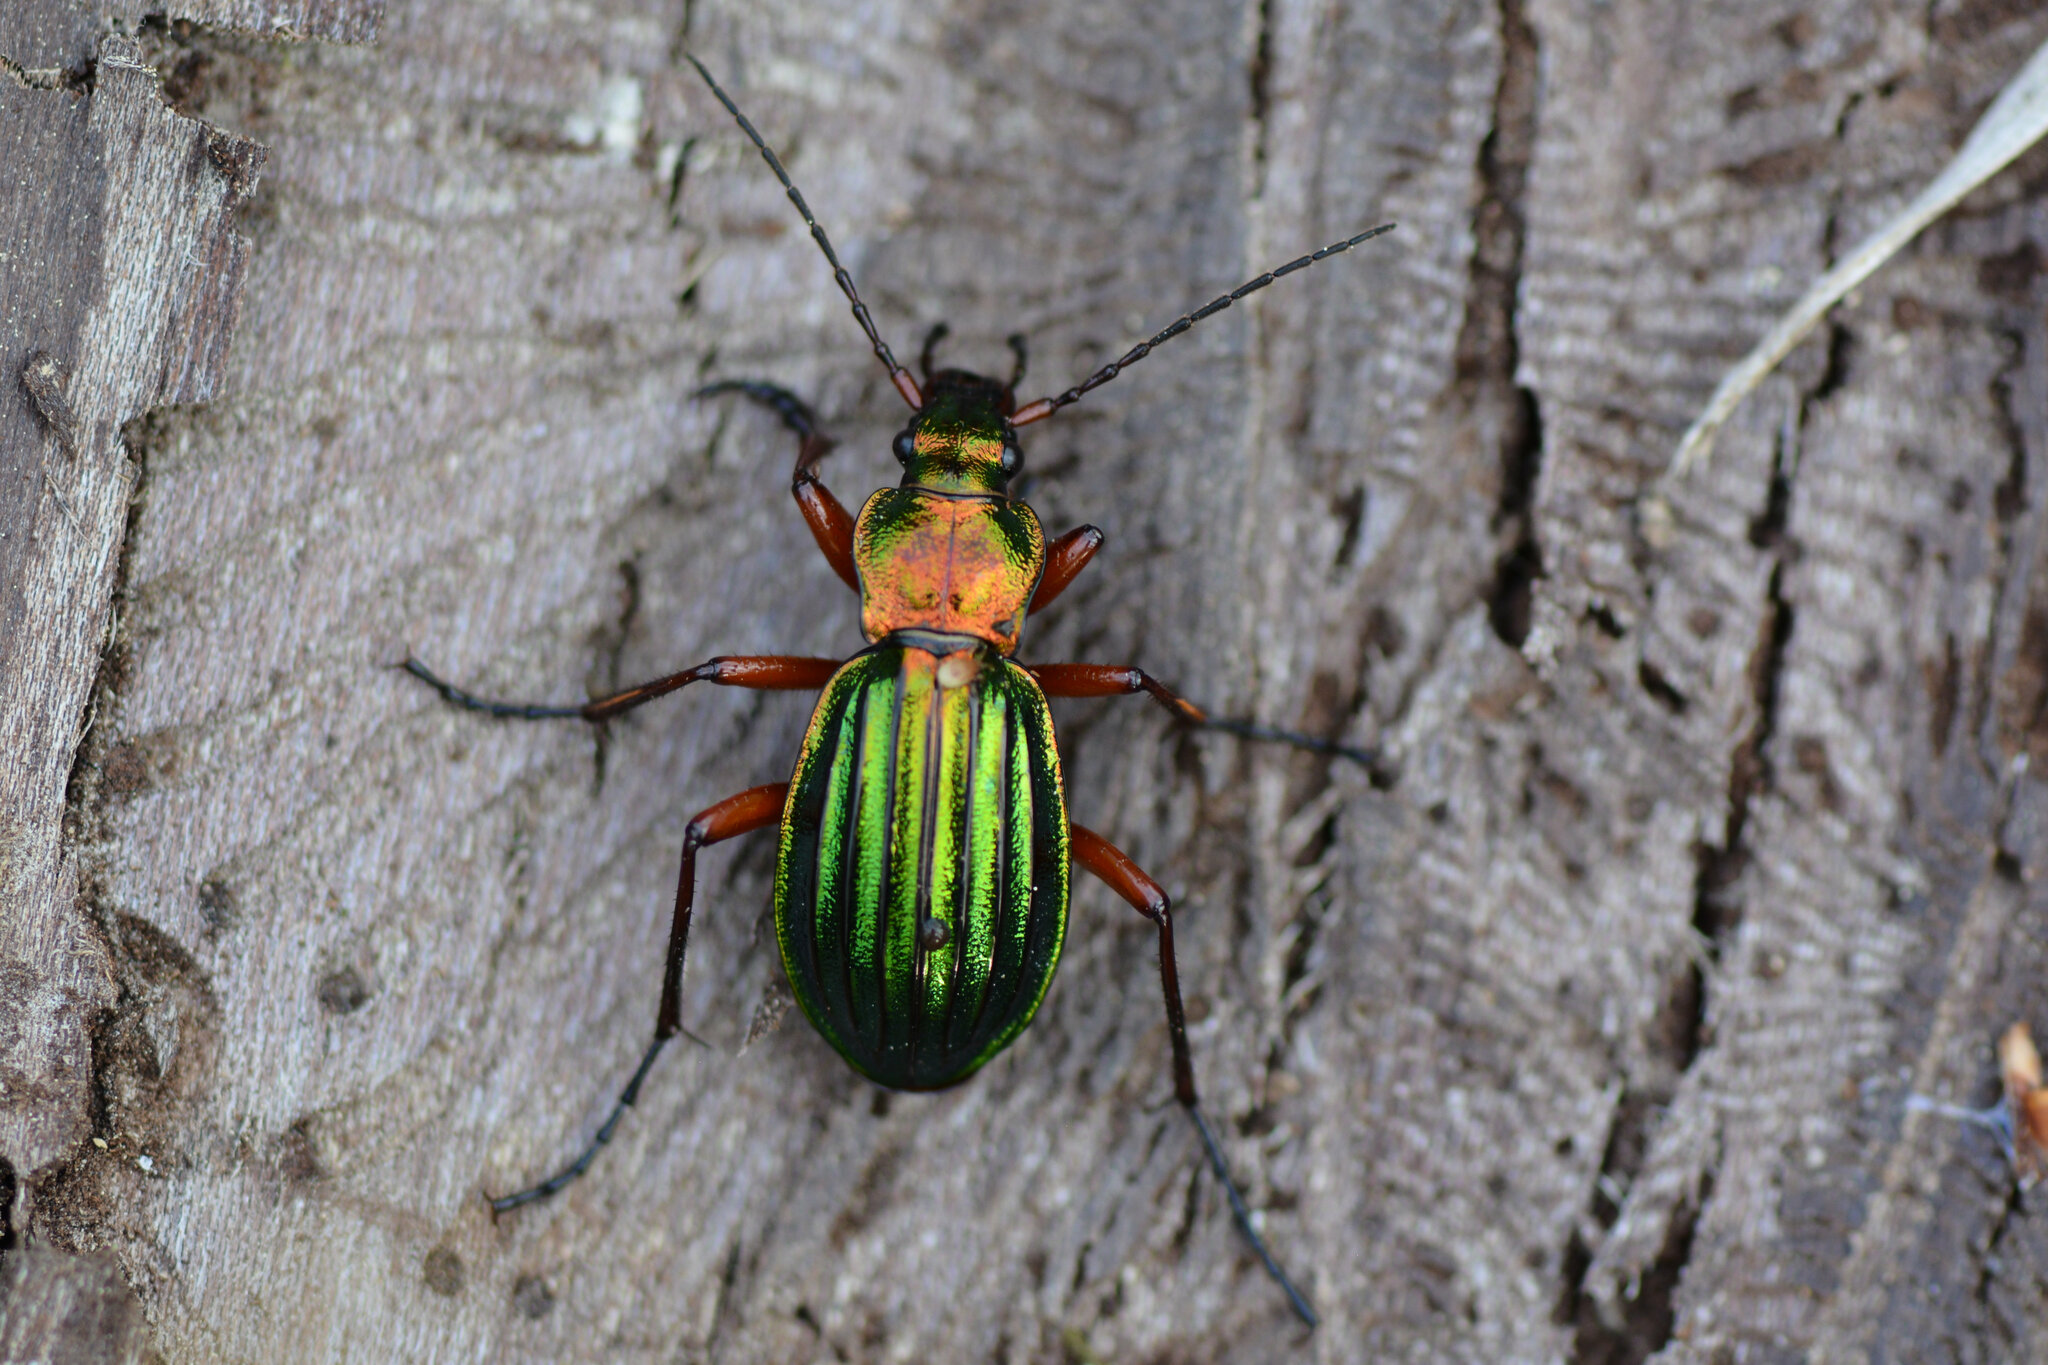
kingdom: Animalia
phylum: Arthropoda
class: Insecta
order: Coleoptera
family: Carabidae
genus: Carabus
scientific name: Carabus auronitens
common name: Carabus auronitens
